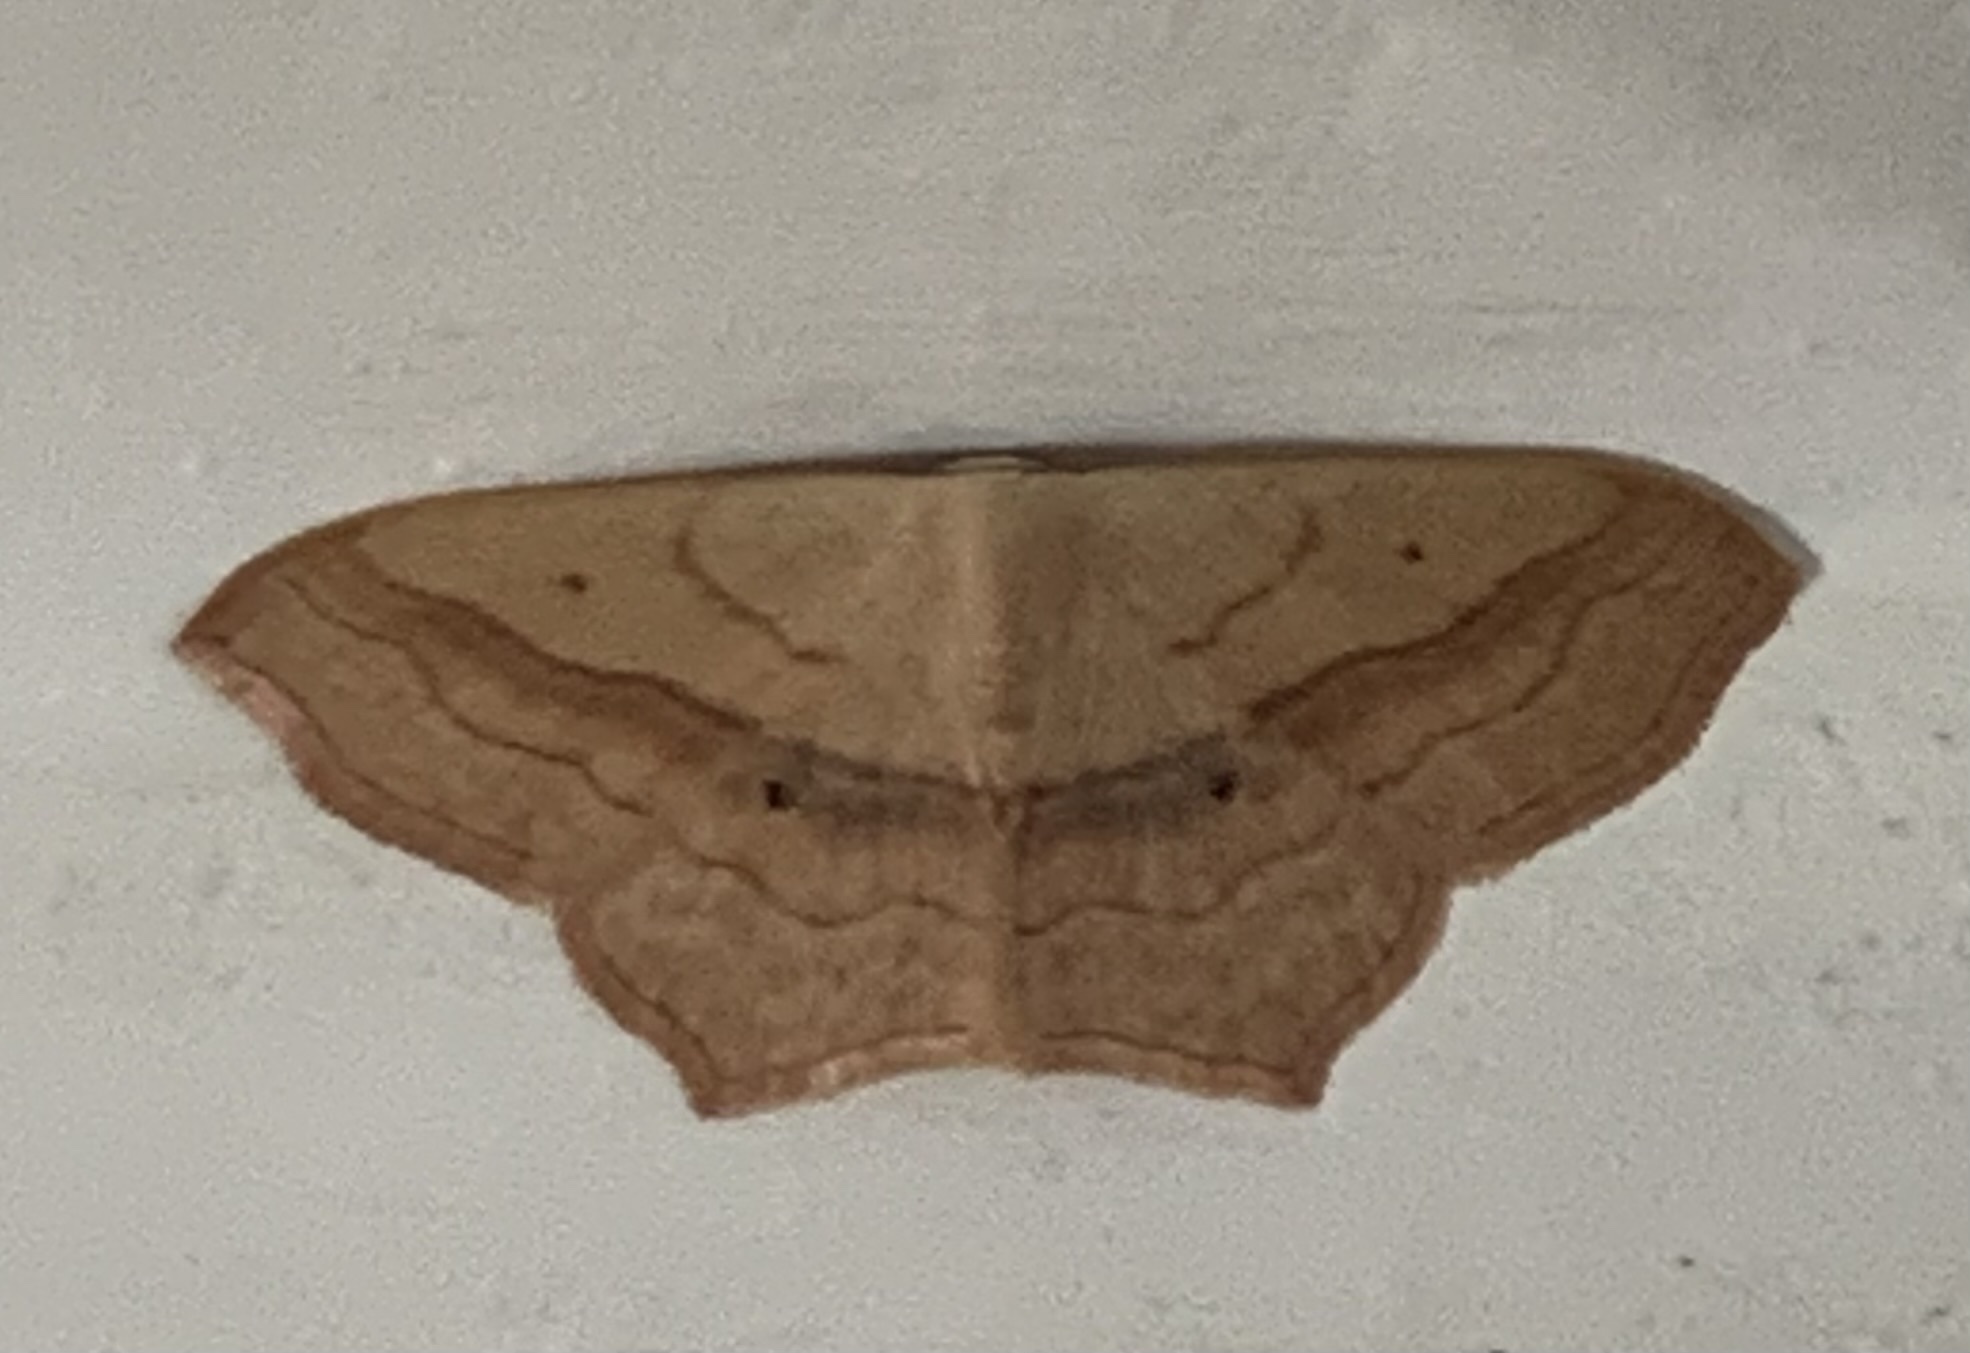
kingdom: Animalia
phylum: Arthropoda
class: Insecta
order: Lepidoptera
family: Geometridae
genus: Scopula
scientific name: Scopula imitaria
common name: Small blood-vein
